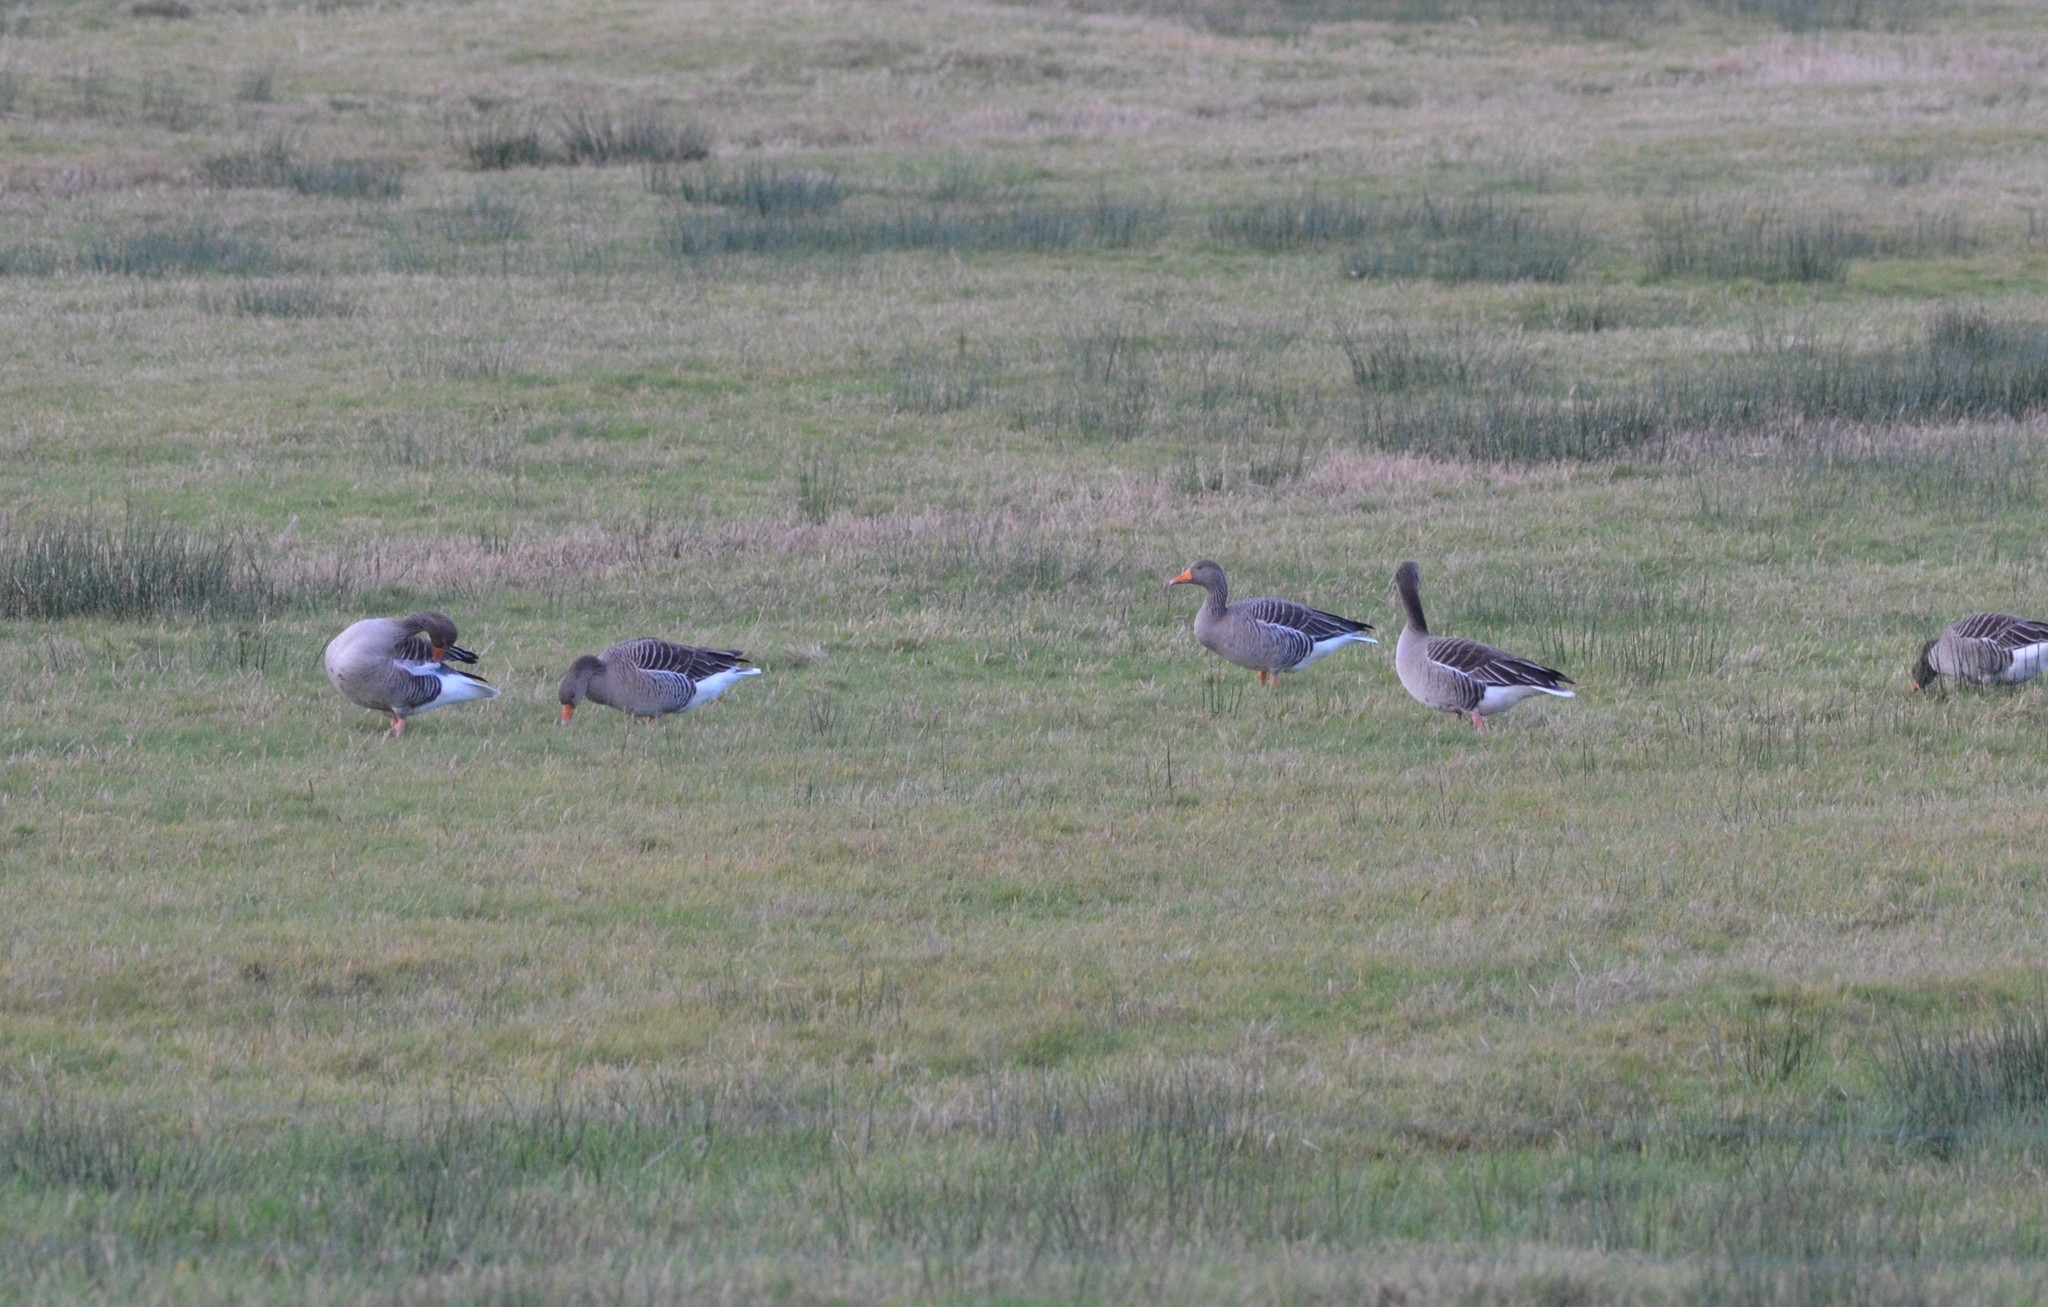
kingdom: Animalia
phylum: Chordata
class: Aves
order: Anseriformes
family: Anatidae
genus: Anser
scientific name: Anser anser
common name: Greylag goose
